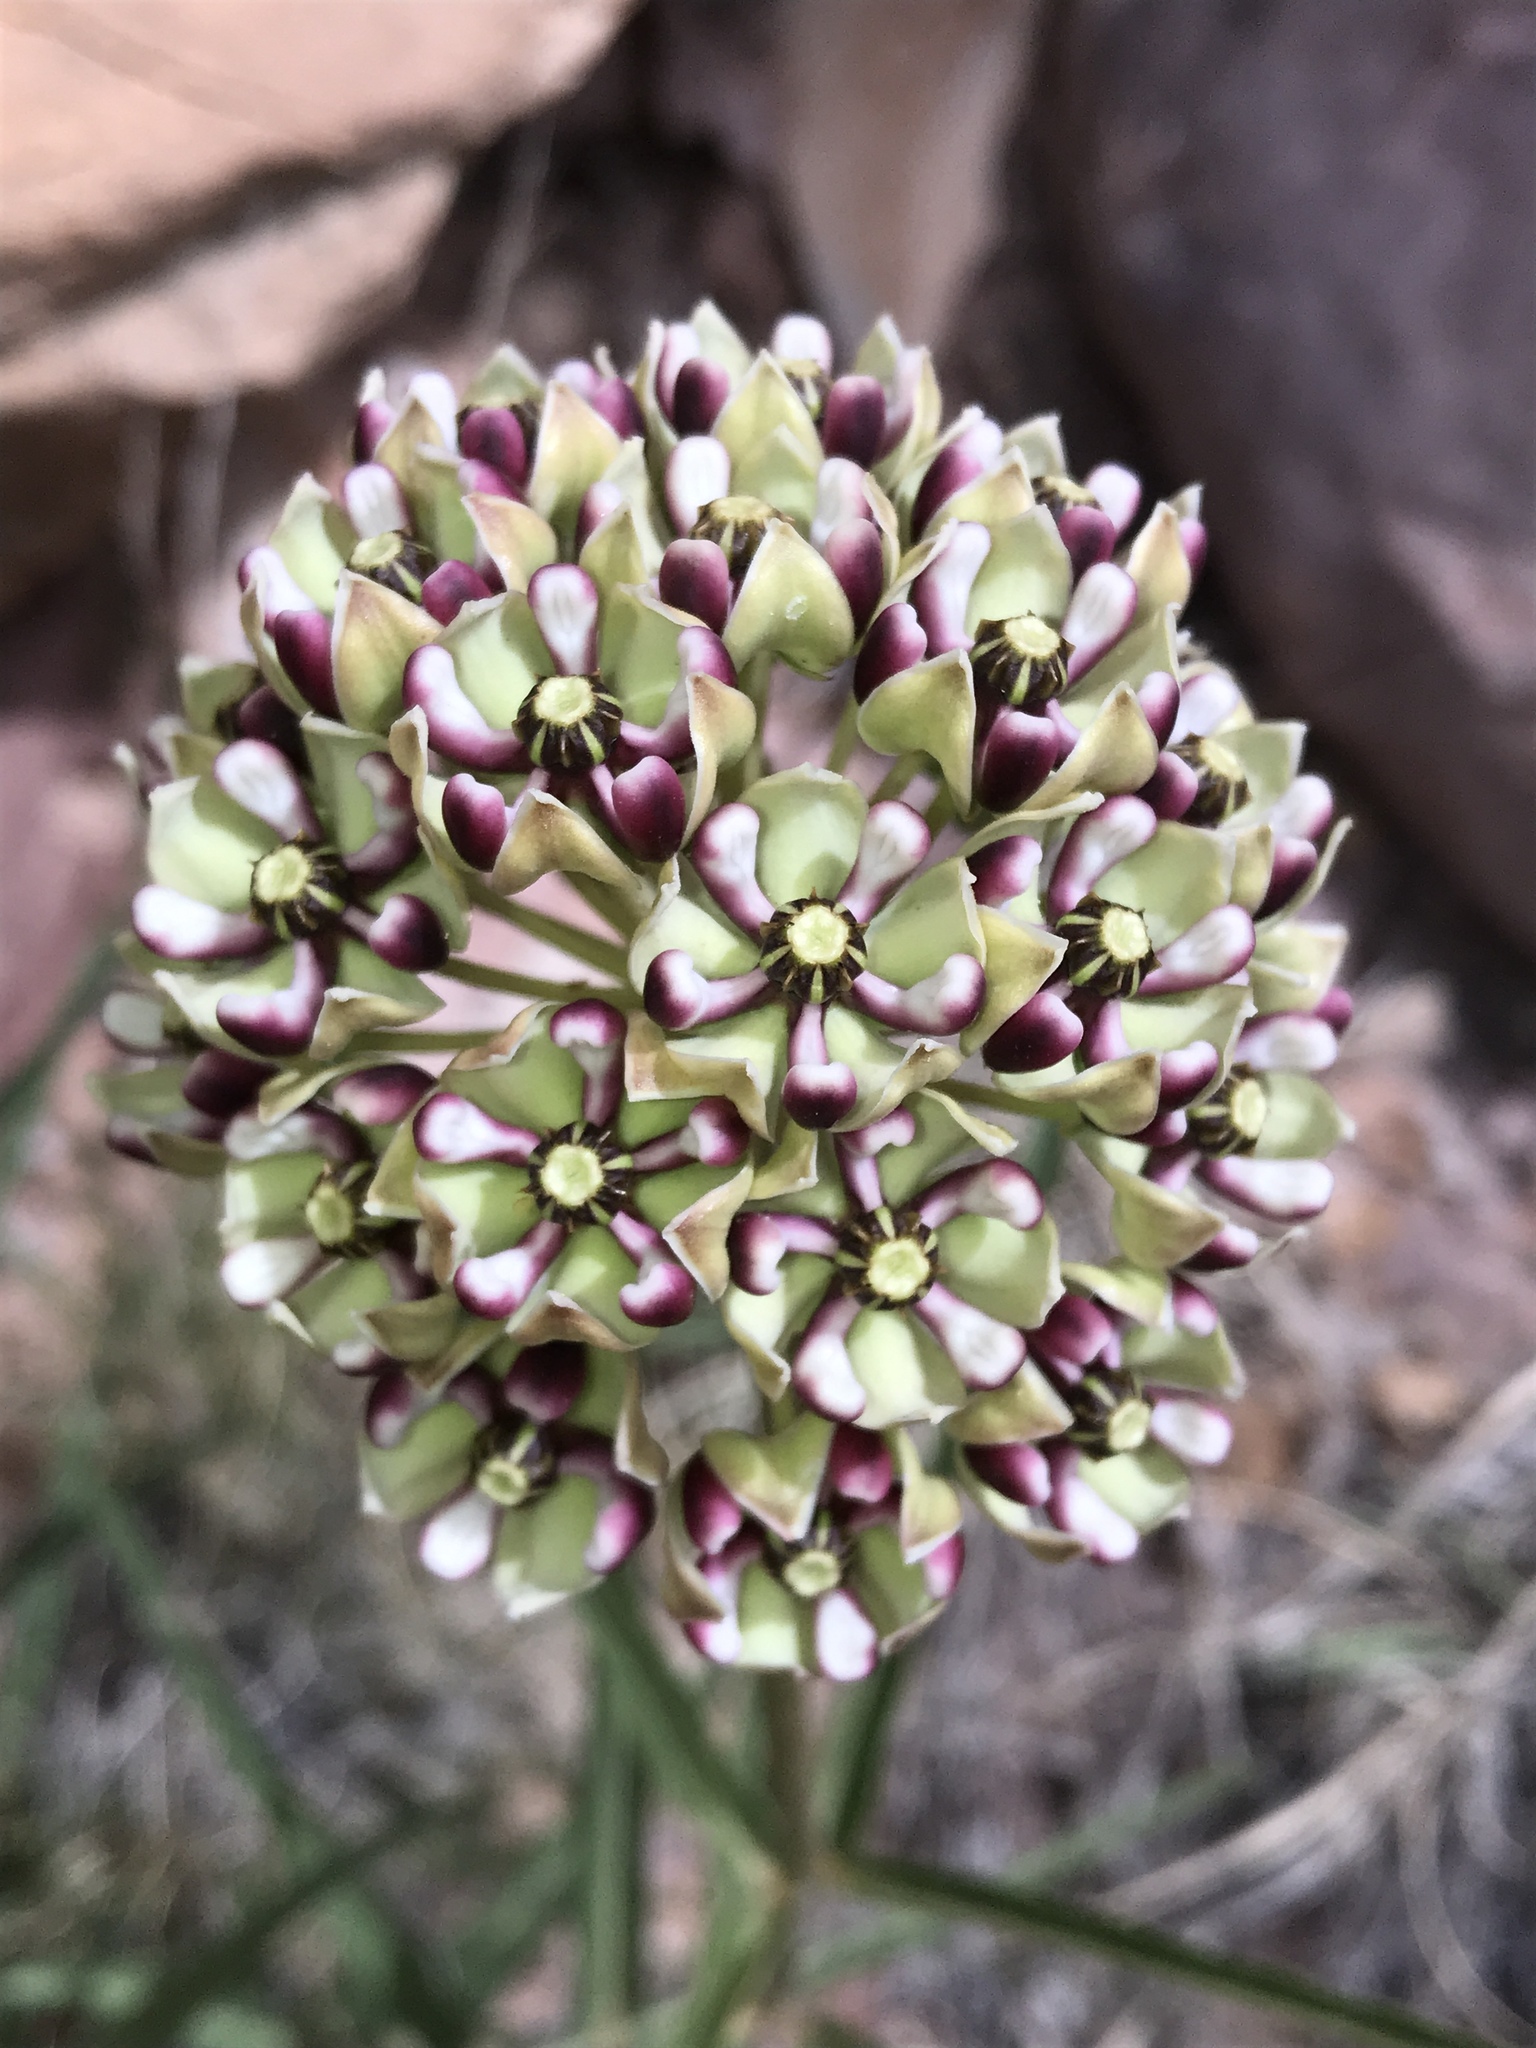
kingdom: Plantae
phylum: Tracheophyta
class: Magnoliopsida
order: Gentianales
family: Apocynaceae
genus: Asclepias
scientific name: Asclepias asperula
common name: Antelope horns
